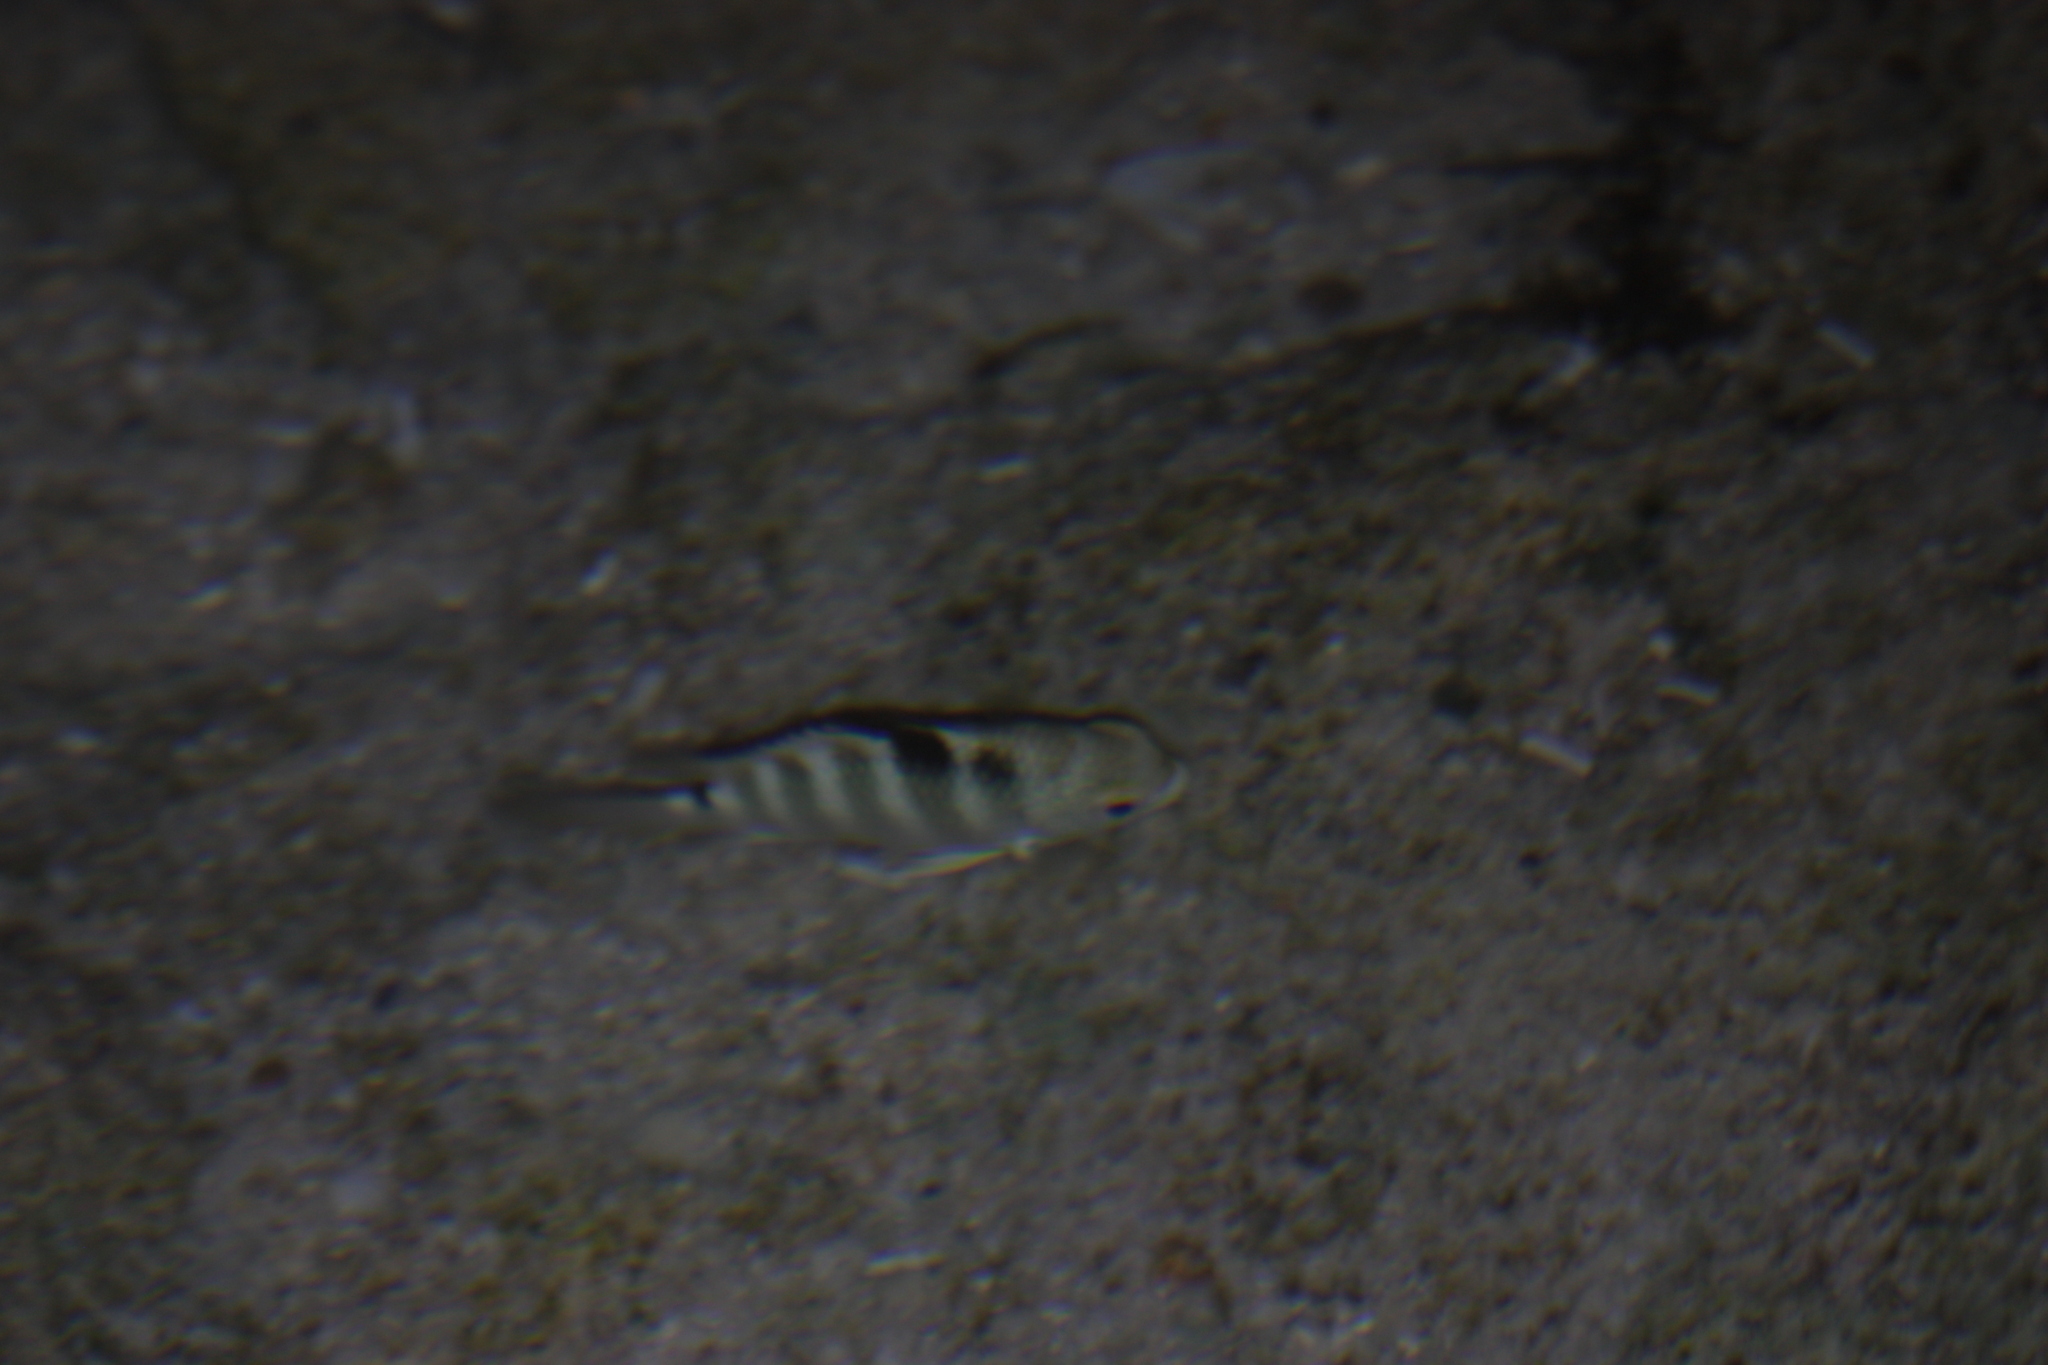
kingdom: Animalia
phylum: Chordata
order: Perciformes
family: Pomacentridae
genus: Abudefduf
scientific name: Abudefduf sordidus
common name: Blackspot sergeant
